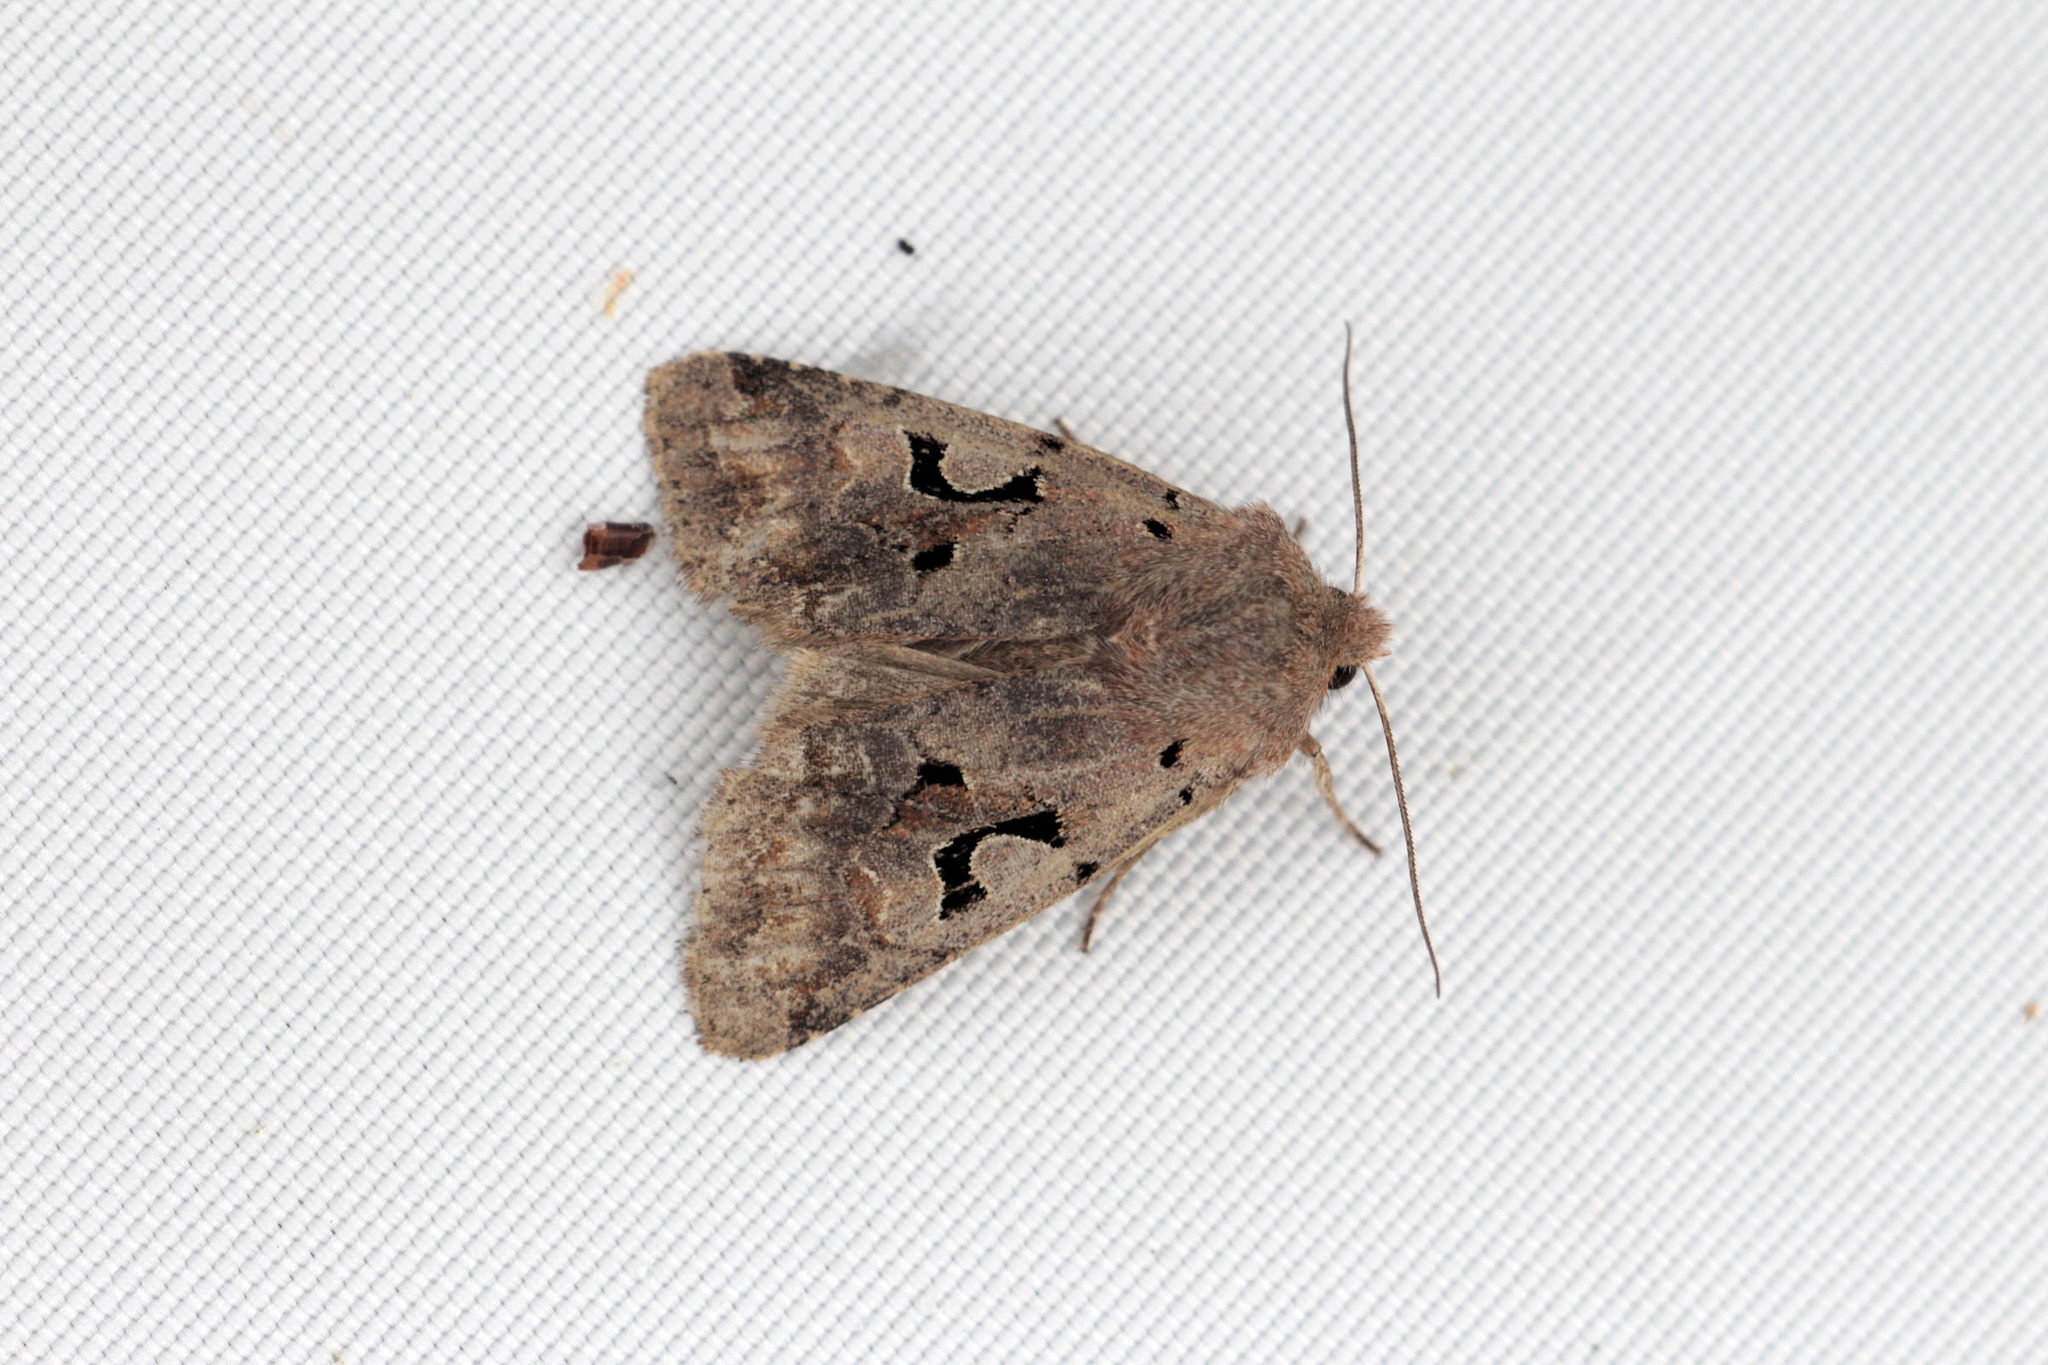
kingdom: Animalia
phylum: Arthropoda
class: Insecta
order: Lepidoptera
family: Noctuidae
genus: Orthosia
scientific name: Orthosia gothica
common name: Hebrew character
